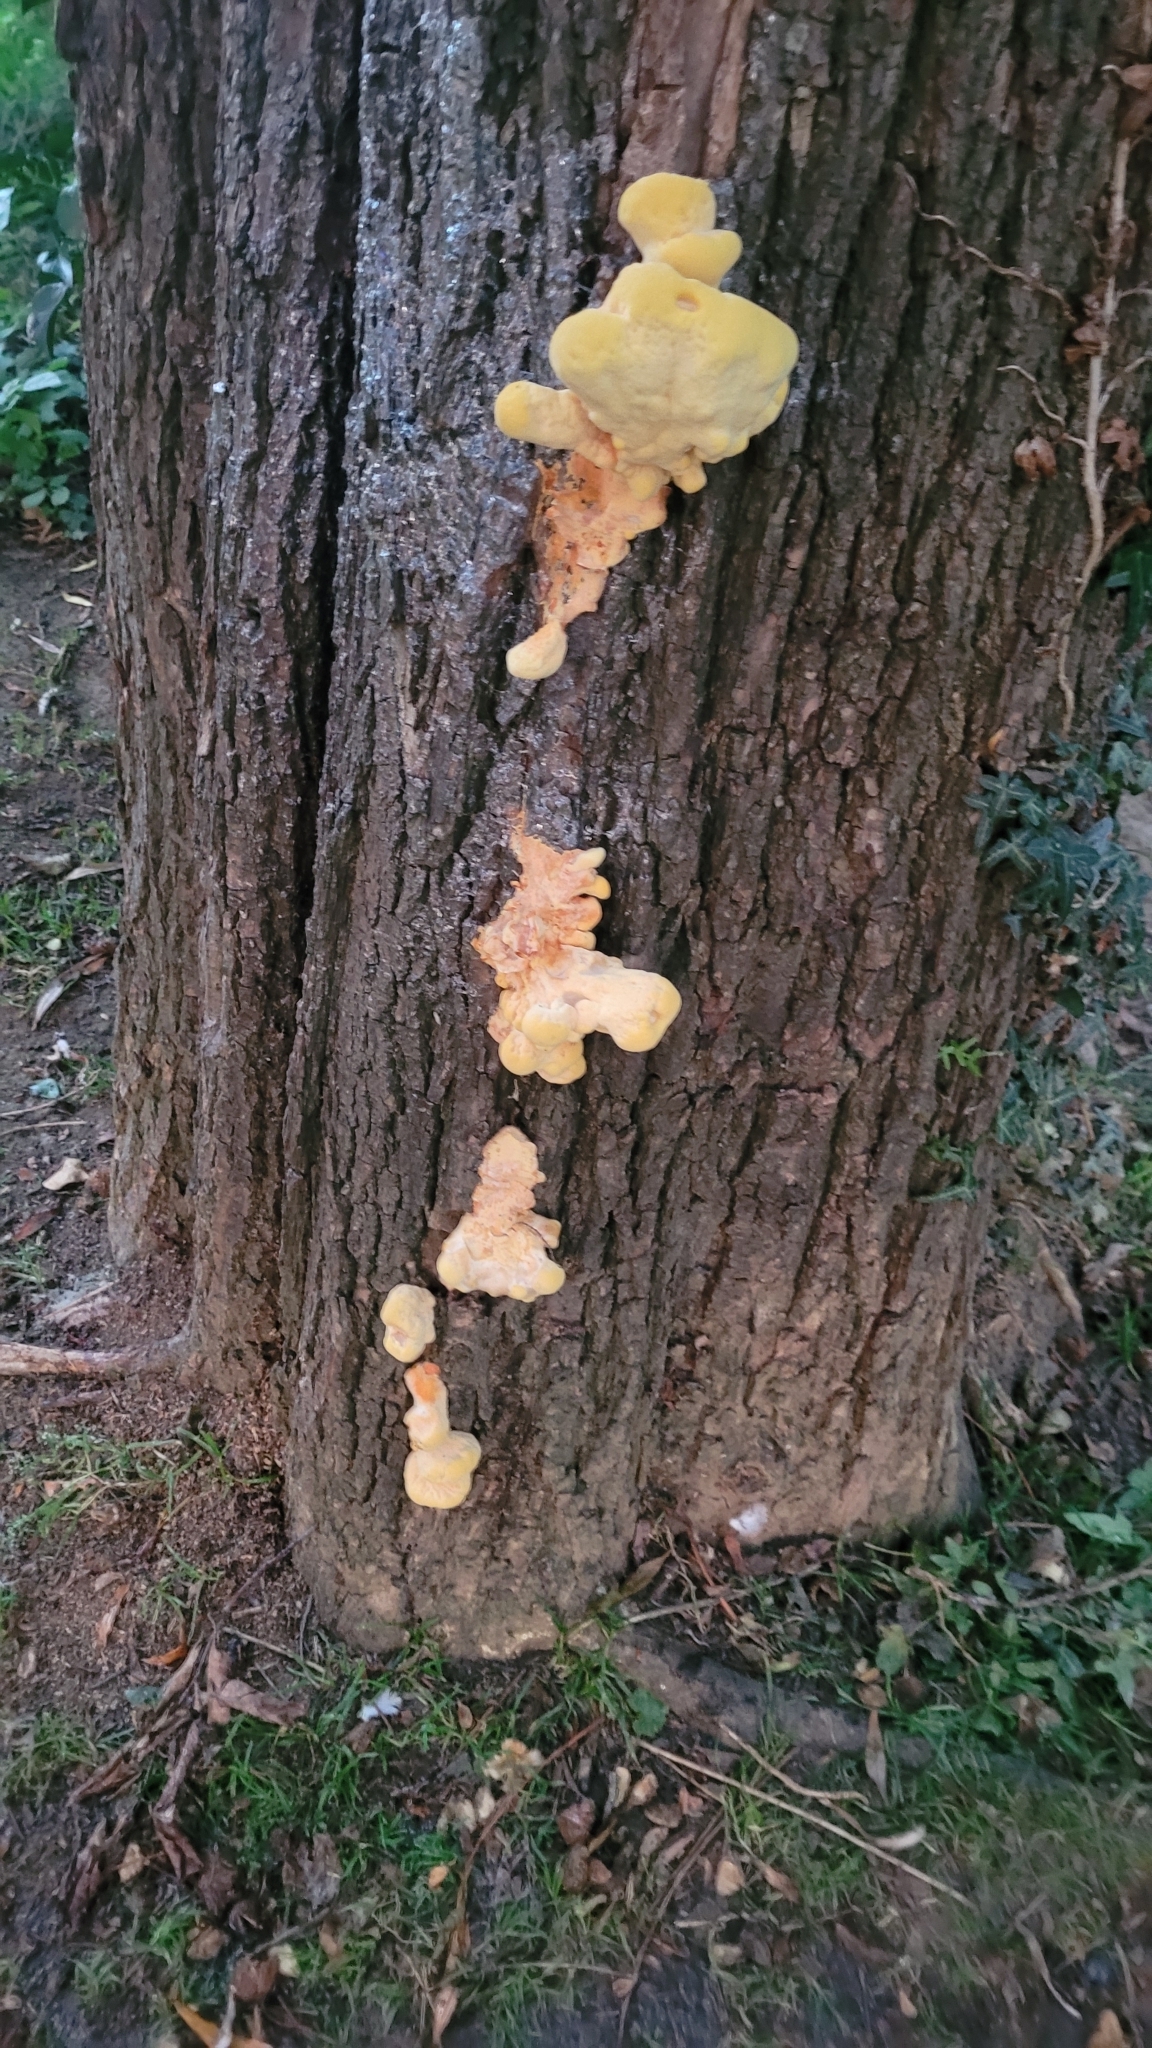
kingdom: Fungi
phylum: Basidiomycota
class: Agaricomycetes
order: Polyporales
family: Laetiporaceae
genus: Laetiporus
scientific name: Laetiporus sulphureus
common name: Chicken of the woods
